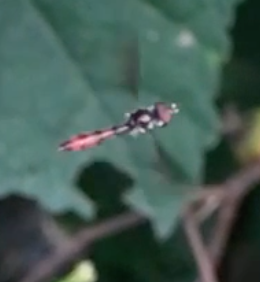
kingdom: Animalia
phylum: Arthropoda
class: Insecta
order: Diptera
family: Syrphidae
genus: Ocyptamus
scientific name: Ocyptamus fuscipennis
